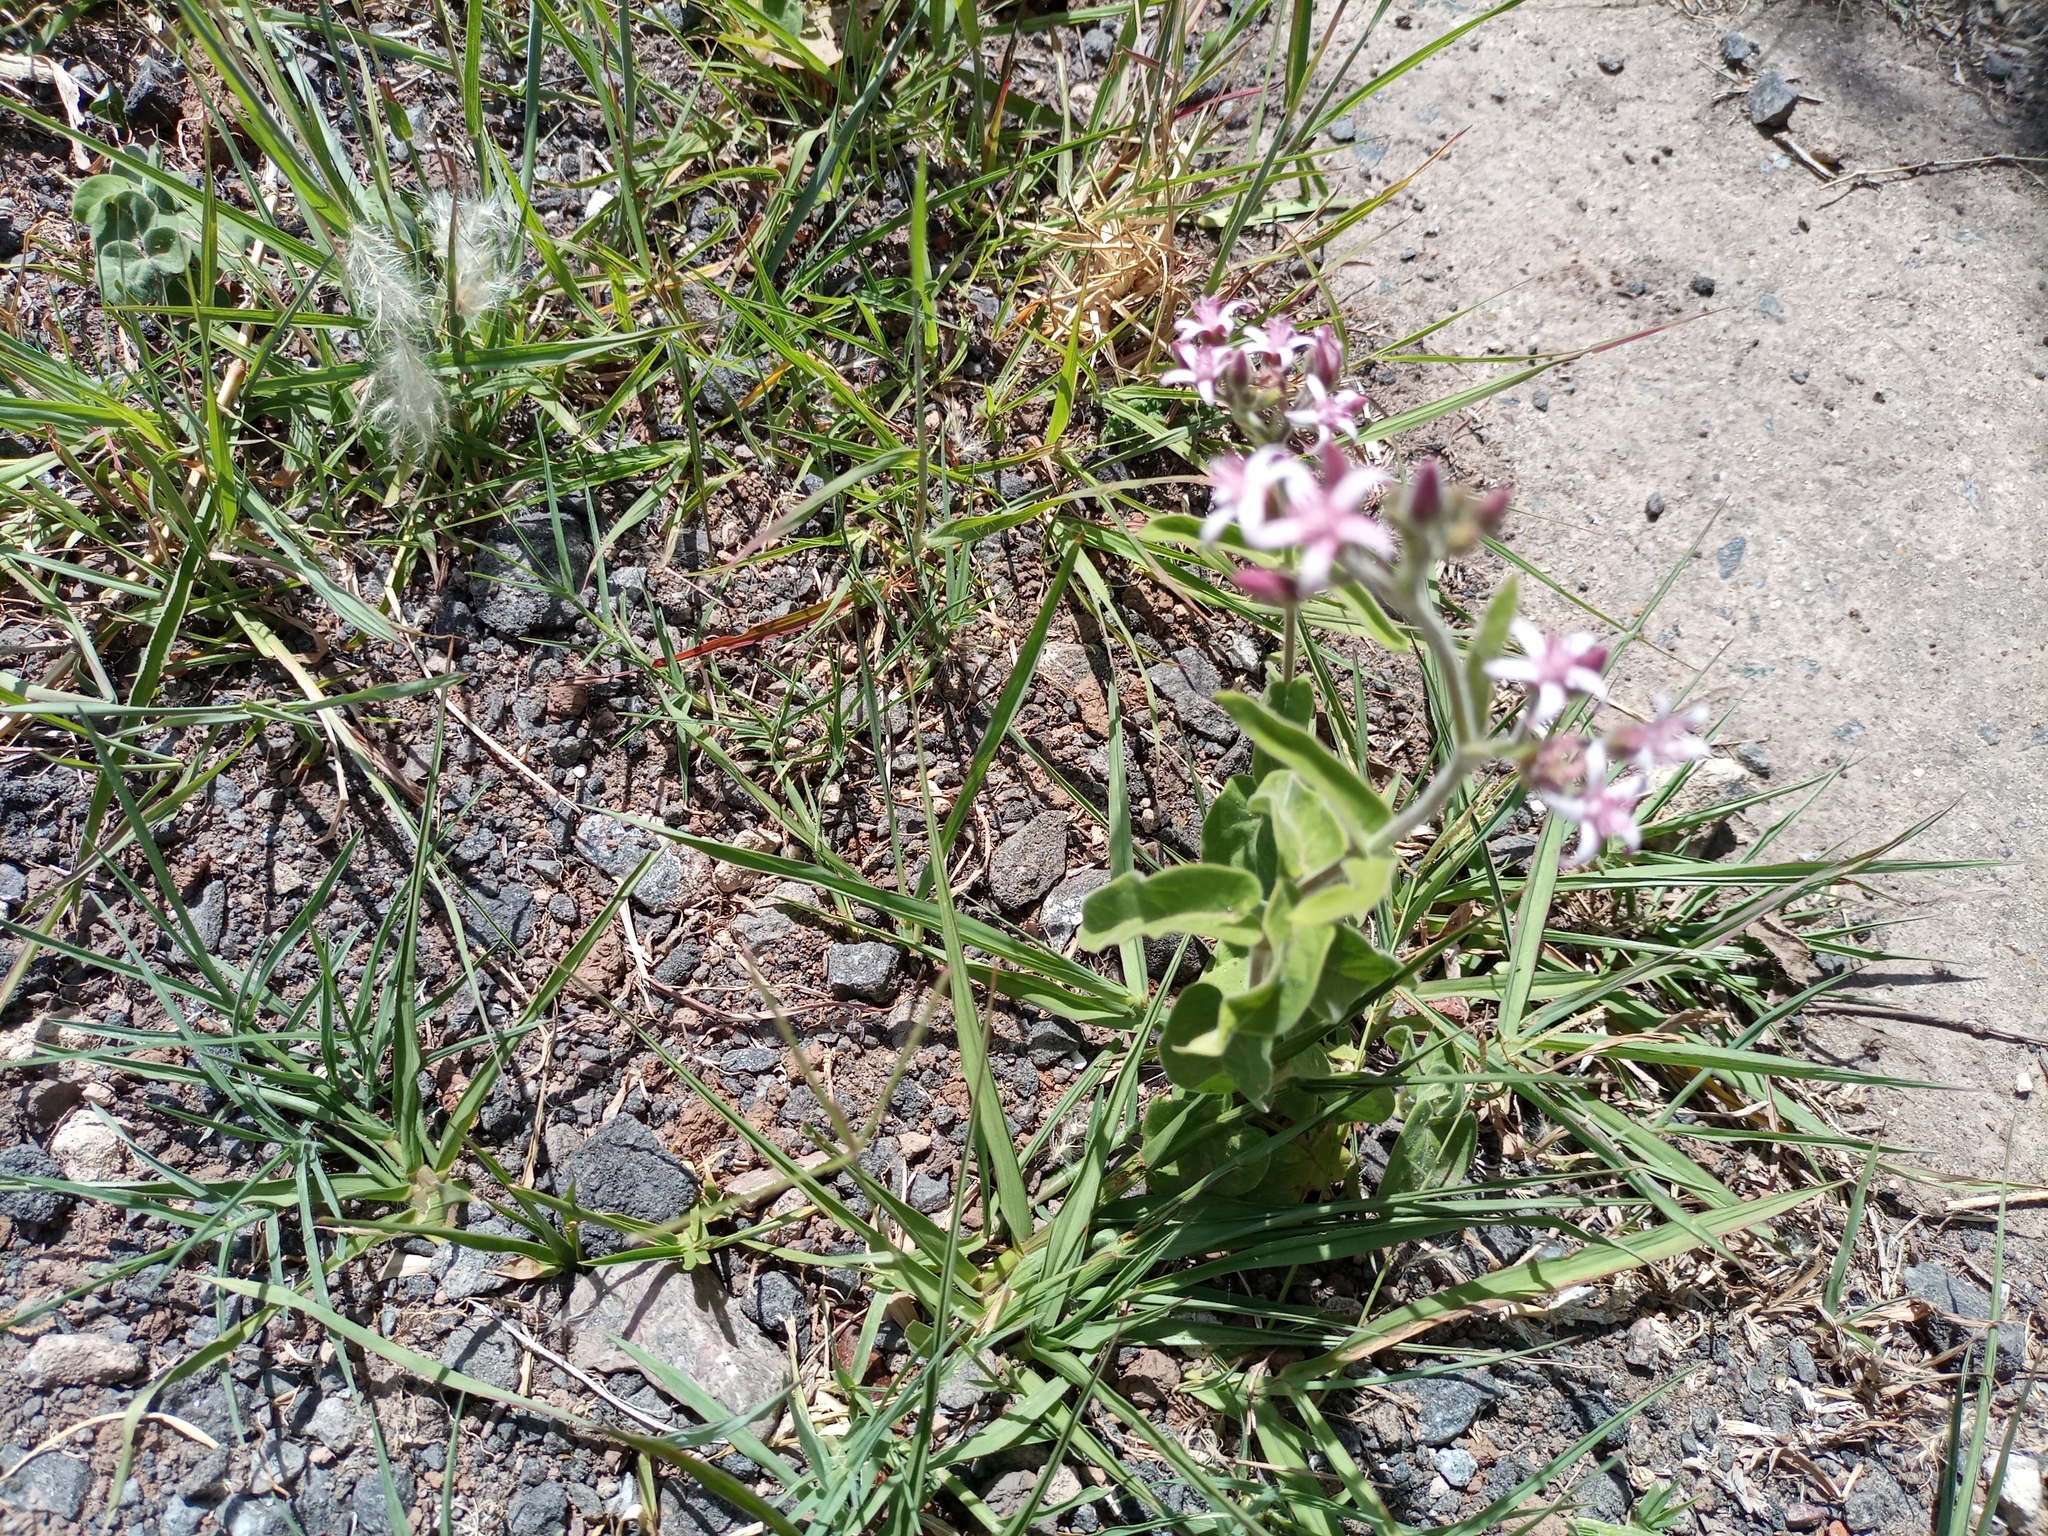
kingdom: Plantae
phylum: Tracheophyta
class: Magnoliopsida
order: Gentianales
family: Apocynaceae
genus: Oxypetalum
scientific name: Oxypetalum solanoides
